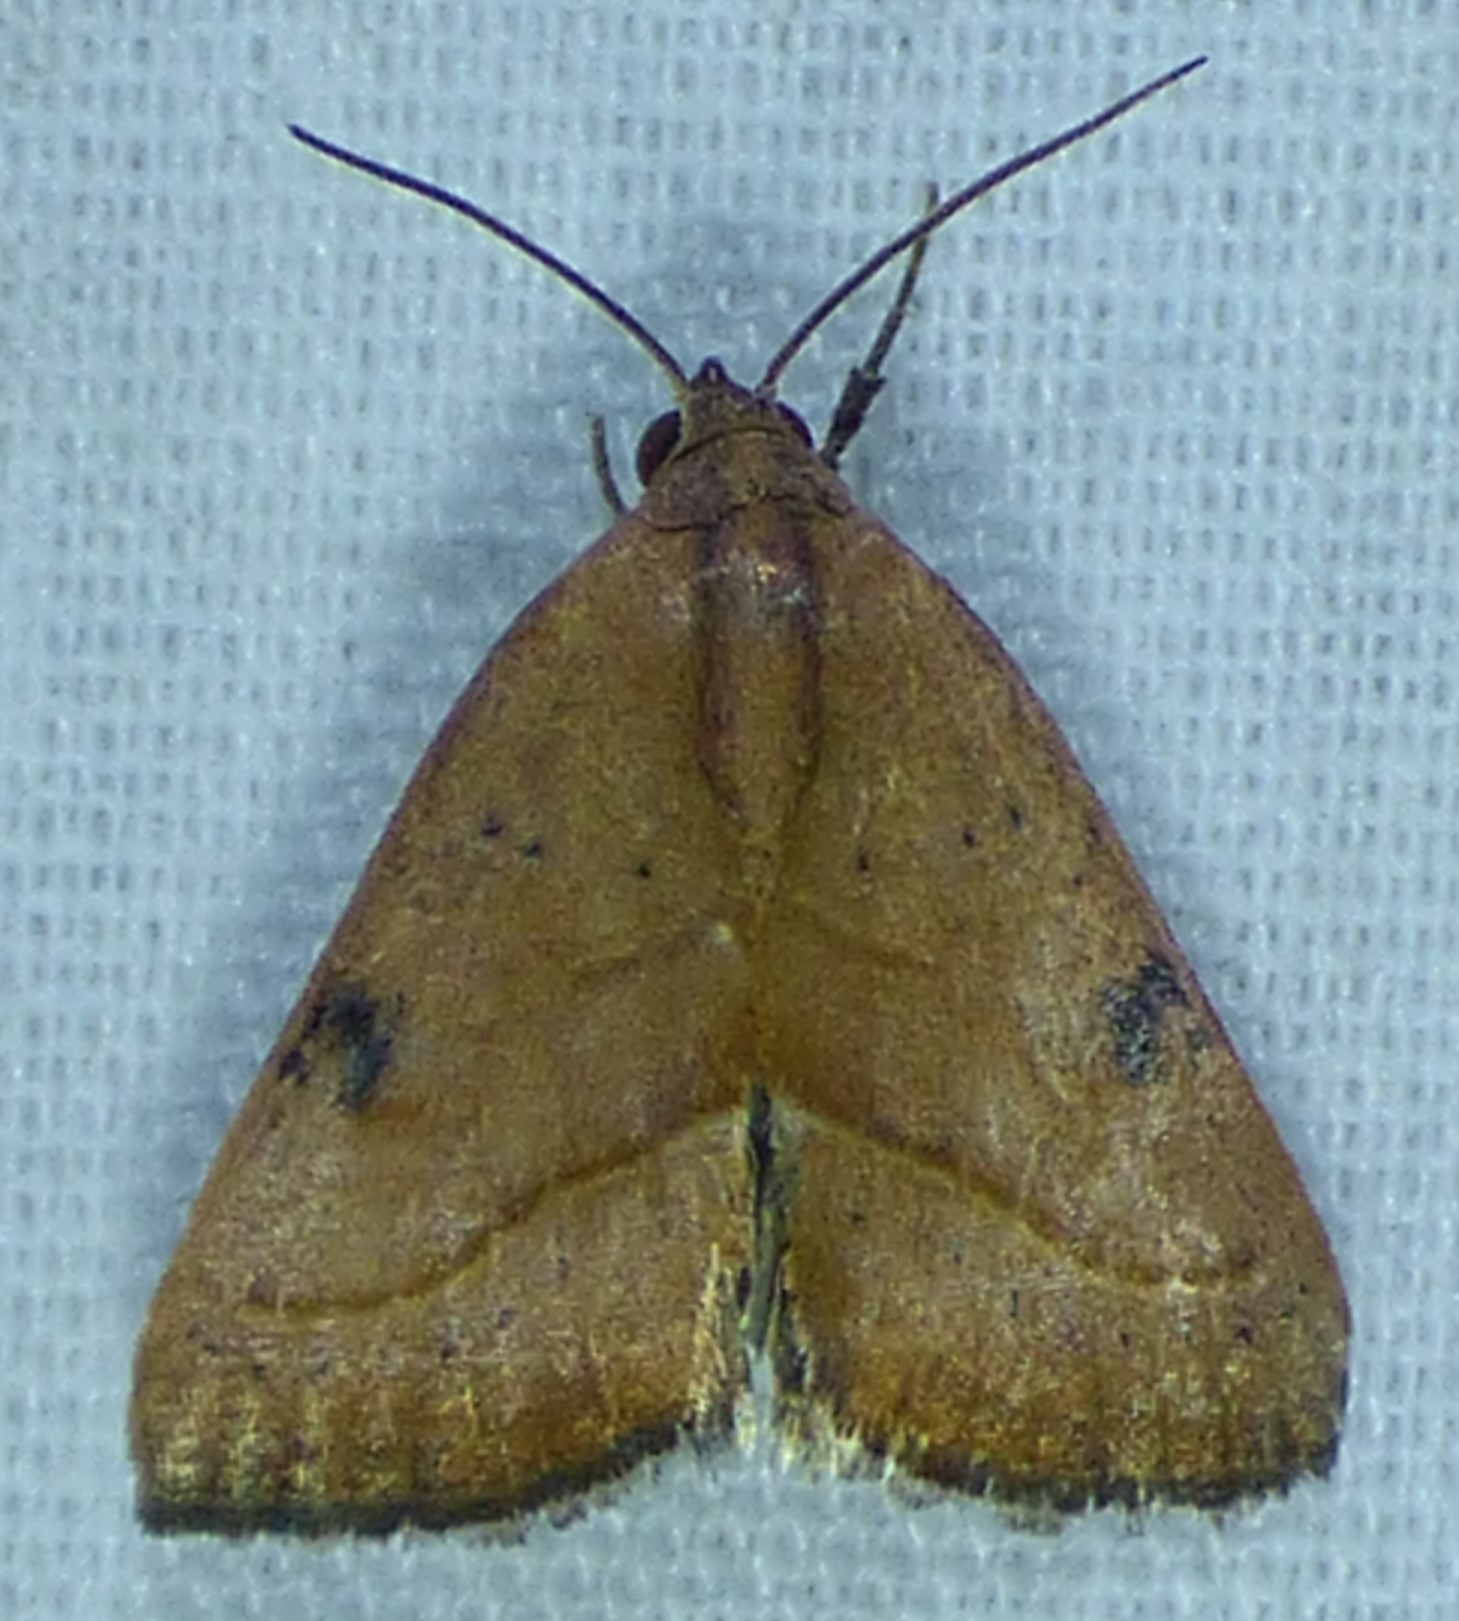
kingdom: Animalia
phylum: Arthropoda
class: Insecta
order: Lepidoptera
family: Noctuidae
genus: Galgula
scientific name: Galgula partita
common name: Wedgeling
